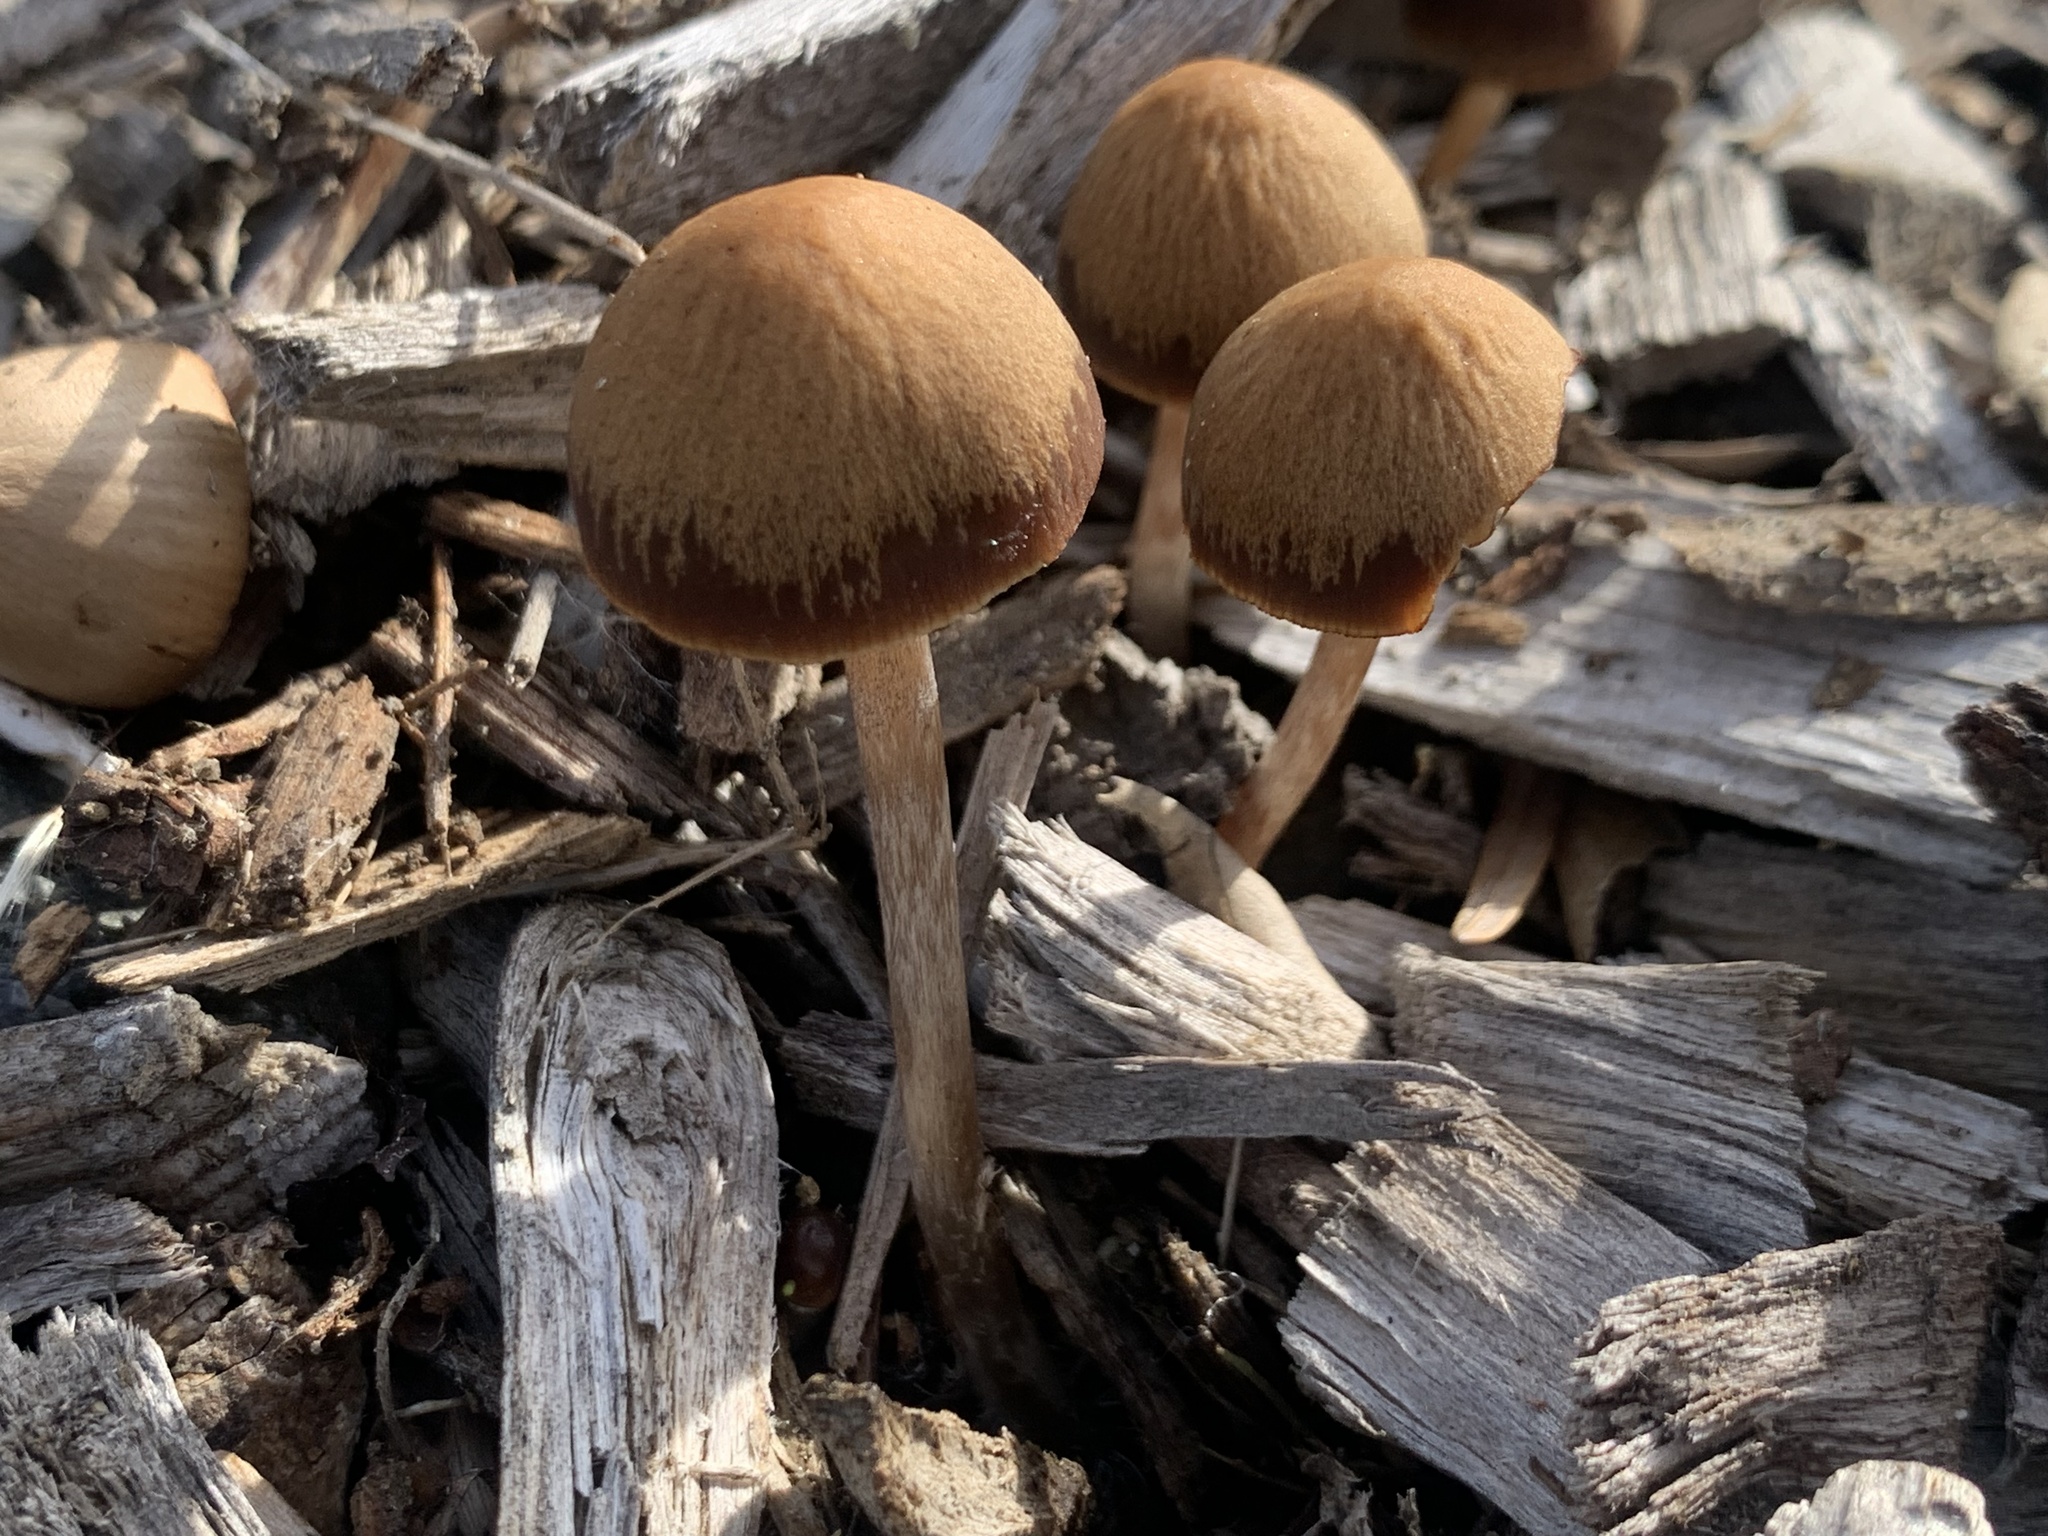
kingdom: Fungi
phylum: Basidiomycota
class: Agaricomycetes
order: Agaricales
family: Psathyrellaceae
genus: Psathyrella
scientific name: Psathyrella corrugis
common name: Red edge brittlestem
